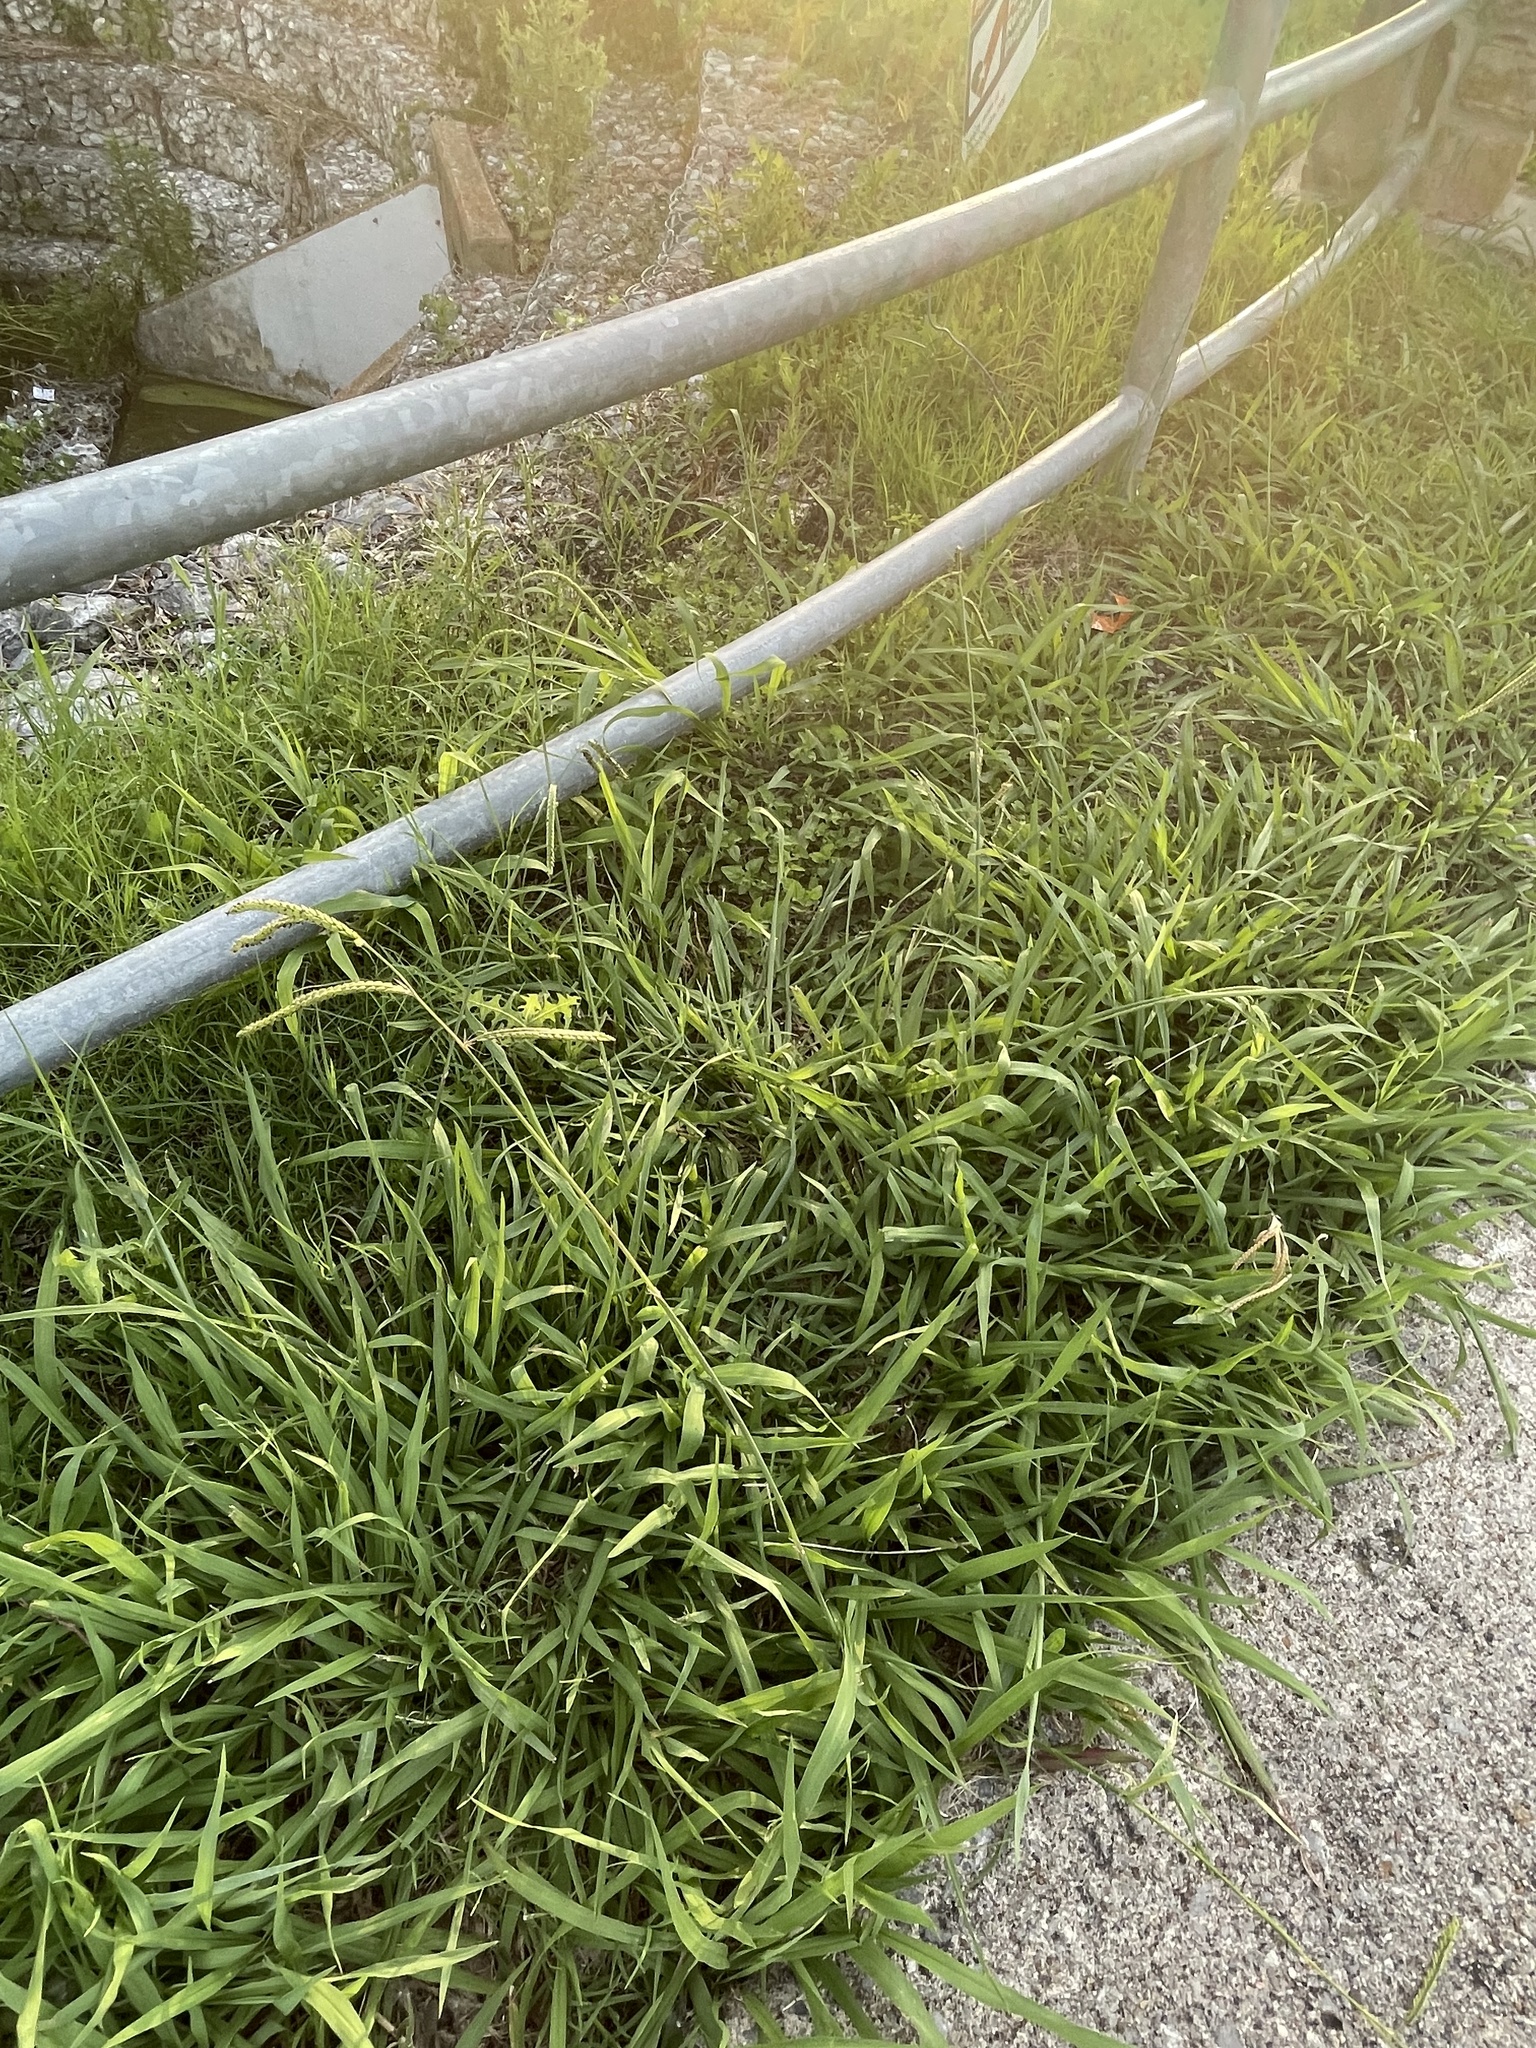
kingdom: Plantae
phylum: Tracheophyta
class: Liliopsida
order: Poales
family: Poaceae
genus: Paspalum
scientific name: Paspalum dilatatum
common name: Dallisgrass
